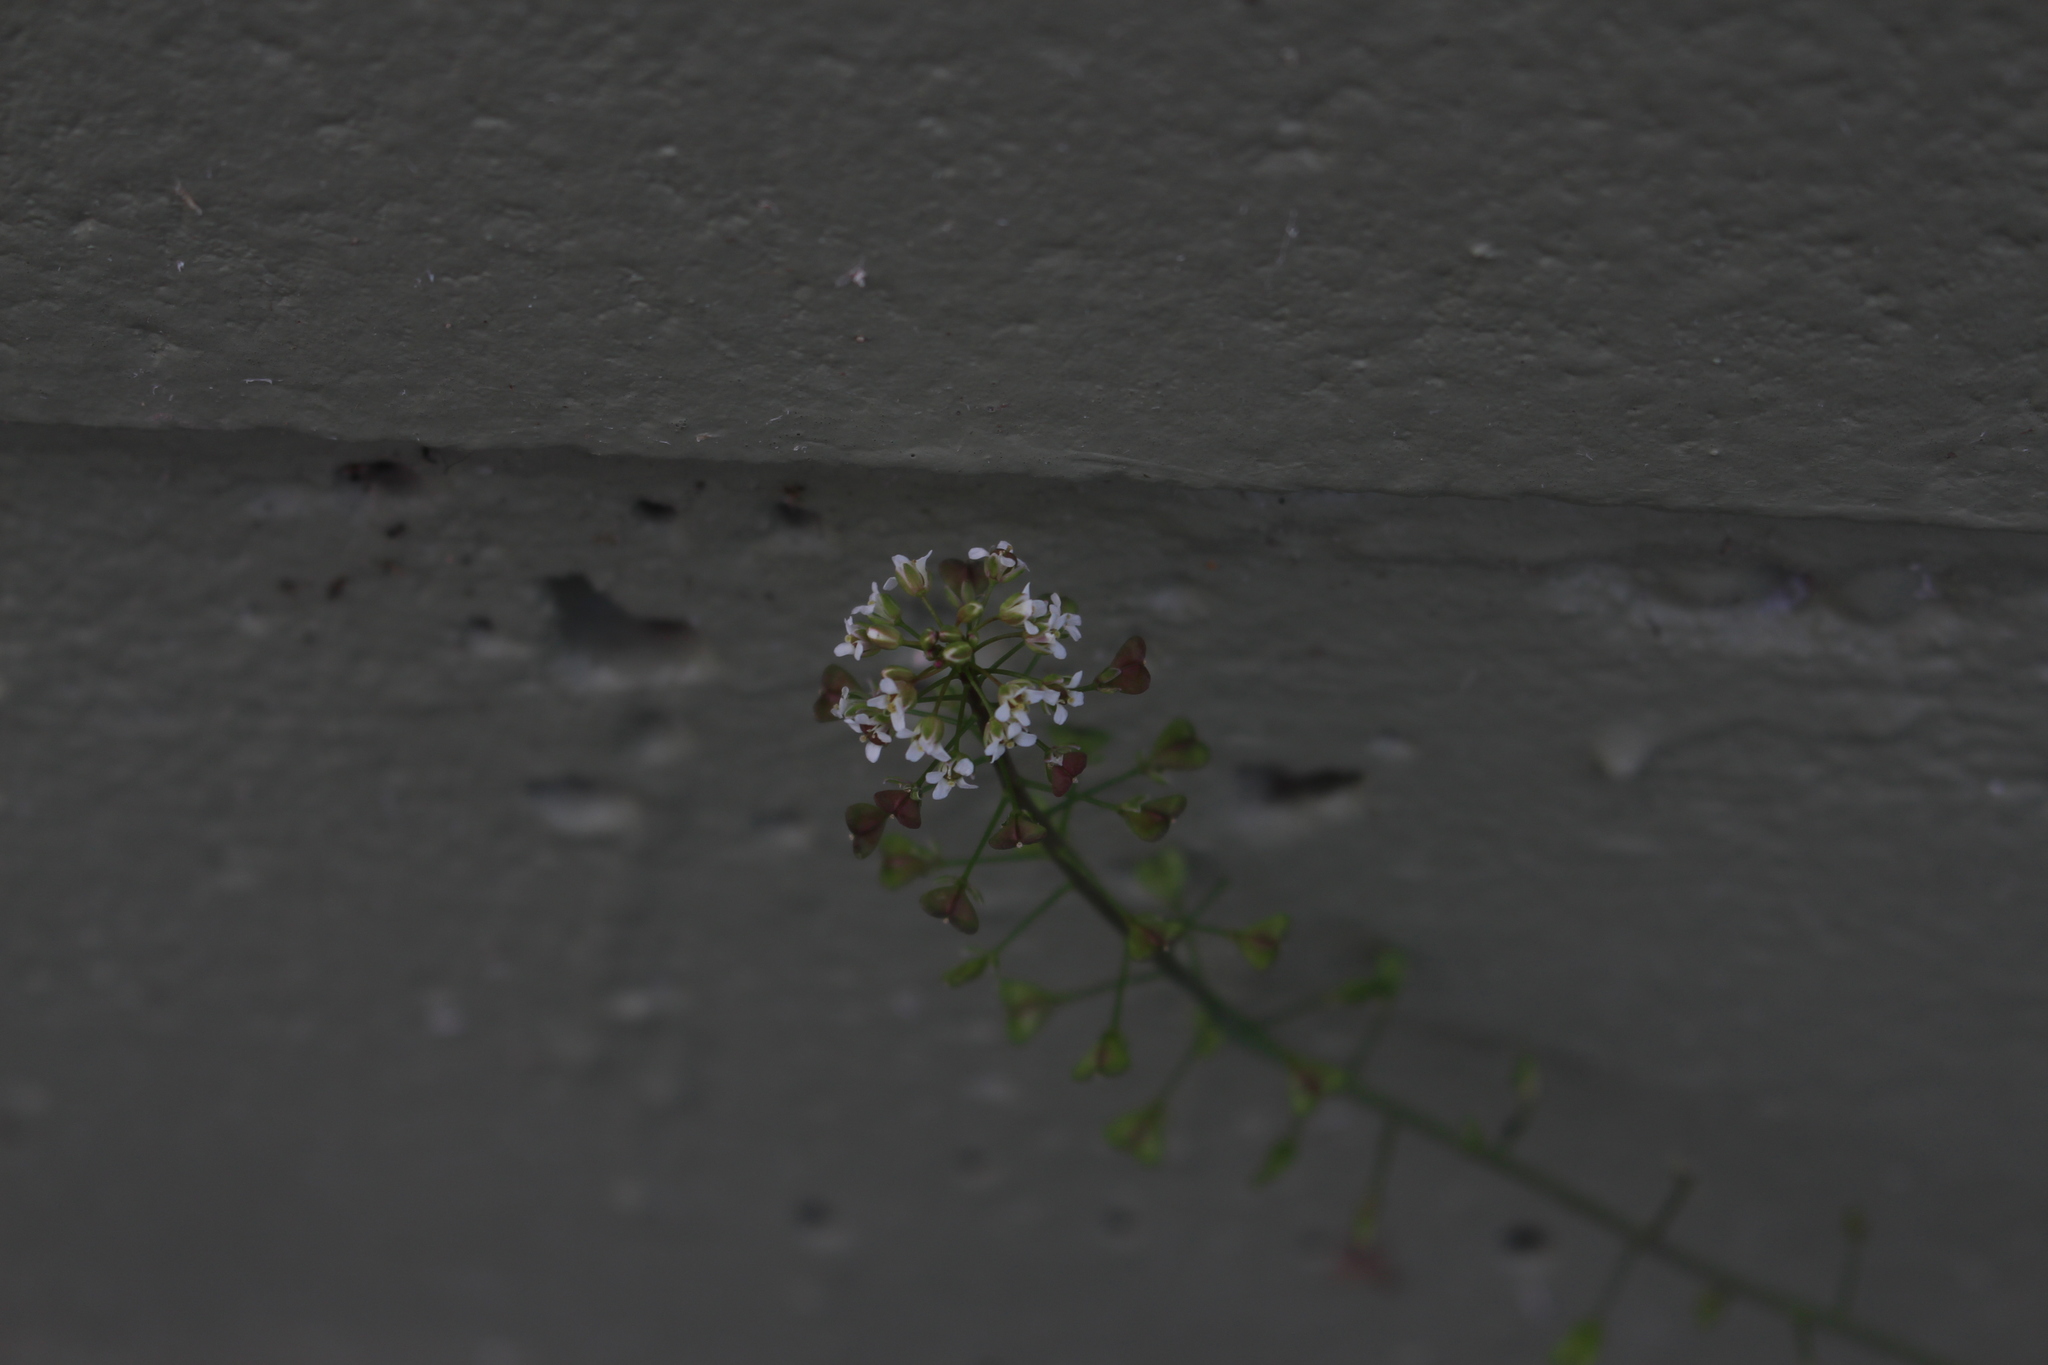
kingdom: Plantae
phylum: Tracheophyta
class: Magnoliopsida
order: Brassicales
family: Brassicaceae
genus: Capsella
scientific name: Capsella bursa-pastoris
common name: Shepherd's purse
